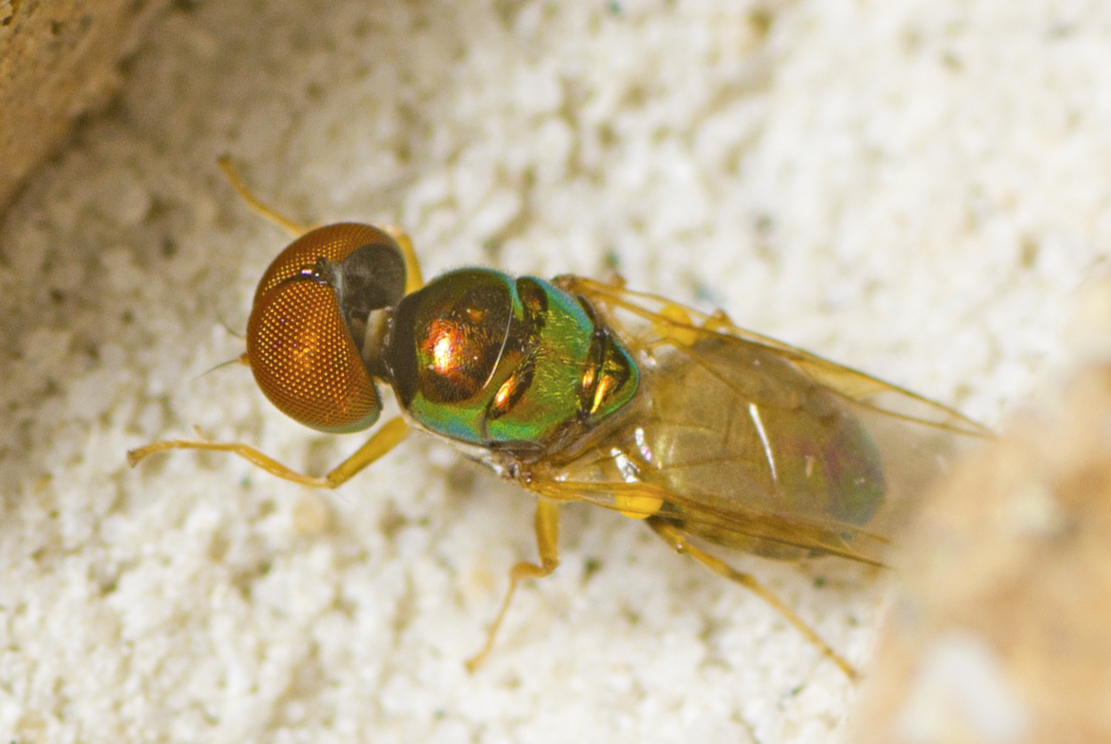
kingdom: Animalia
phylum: Arthropoda
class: Insecta
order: Diptera
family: Stratiomyidae
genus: Microchrysa
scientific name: Microchrysa flaviventris
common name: Soldier fly
